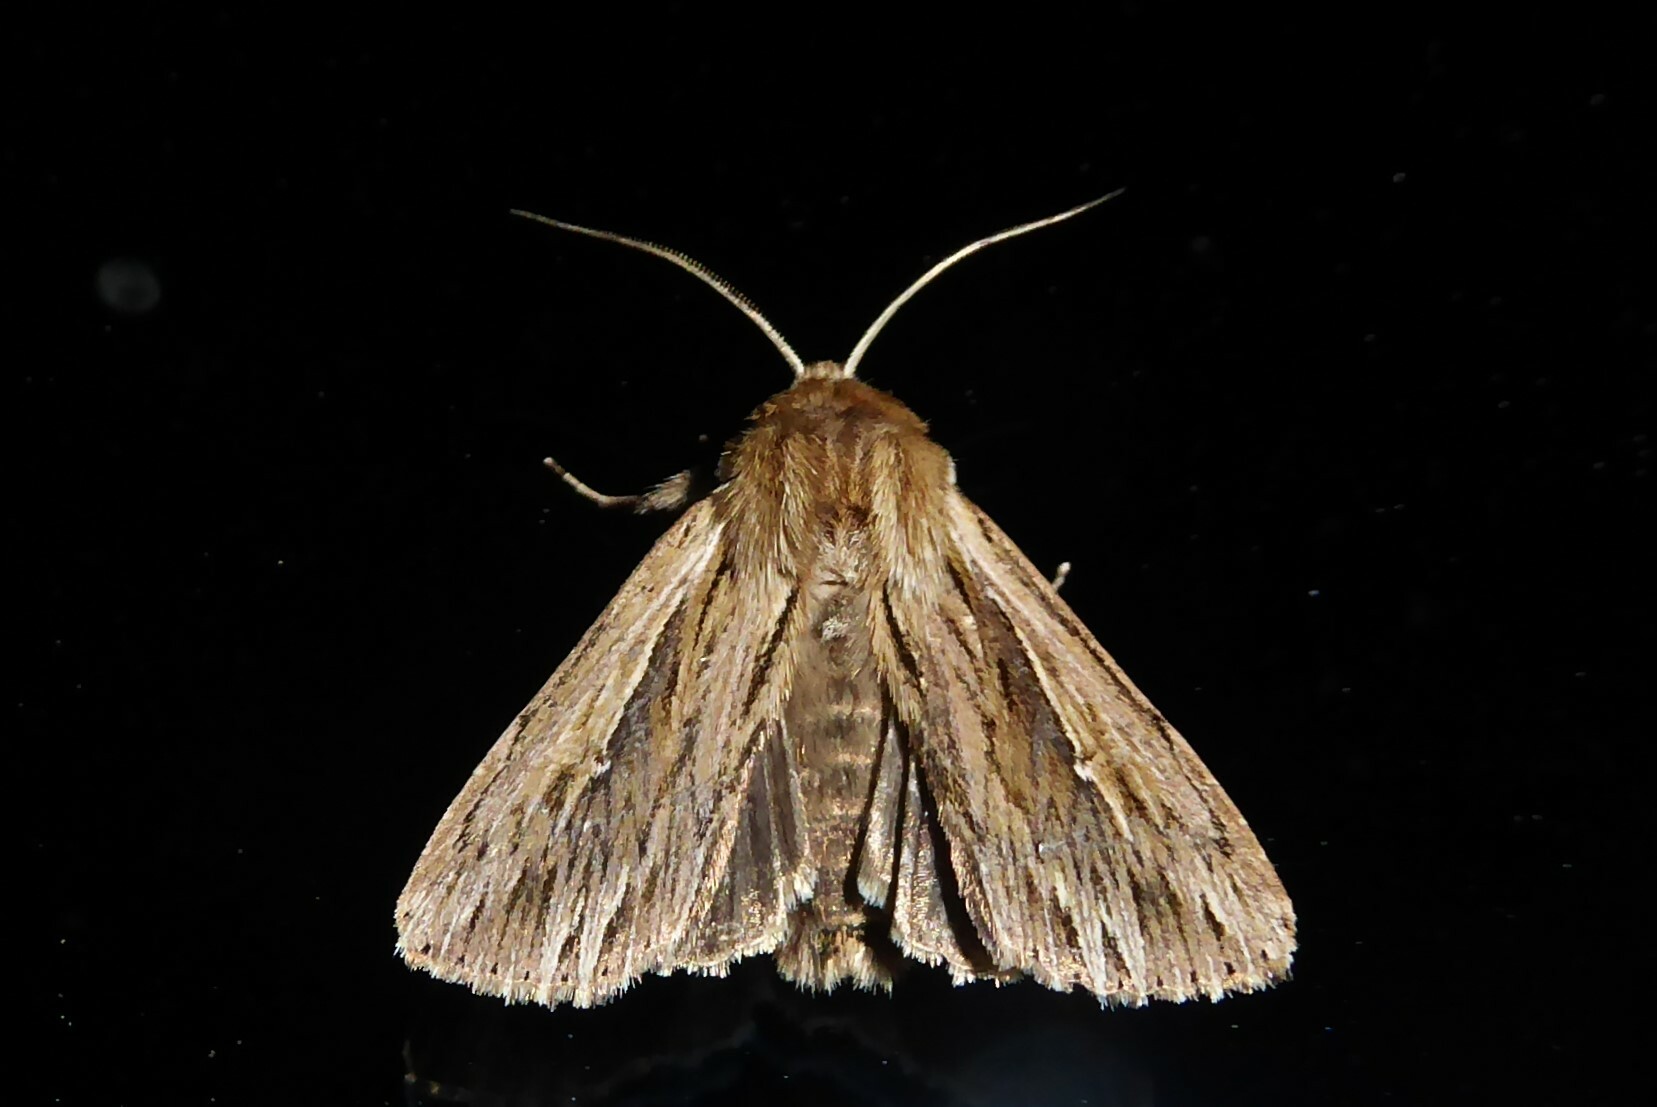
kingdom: Animalia
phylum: Arthropoda
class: Insecta
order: Lepidoptera
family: Noctuidae
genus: Persectania
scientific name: Persectania aversa
